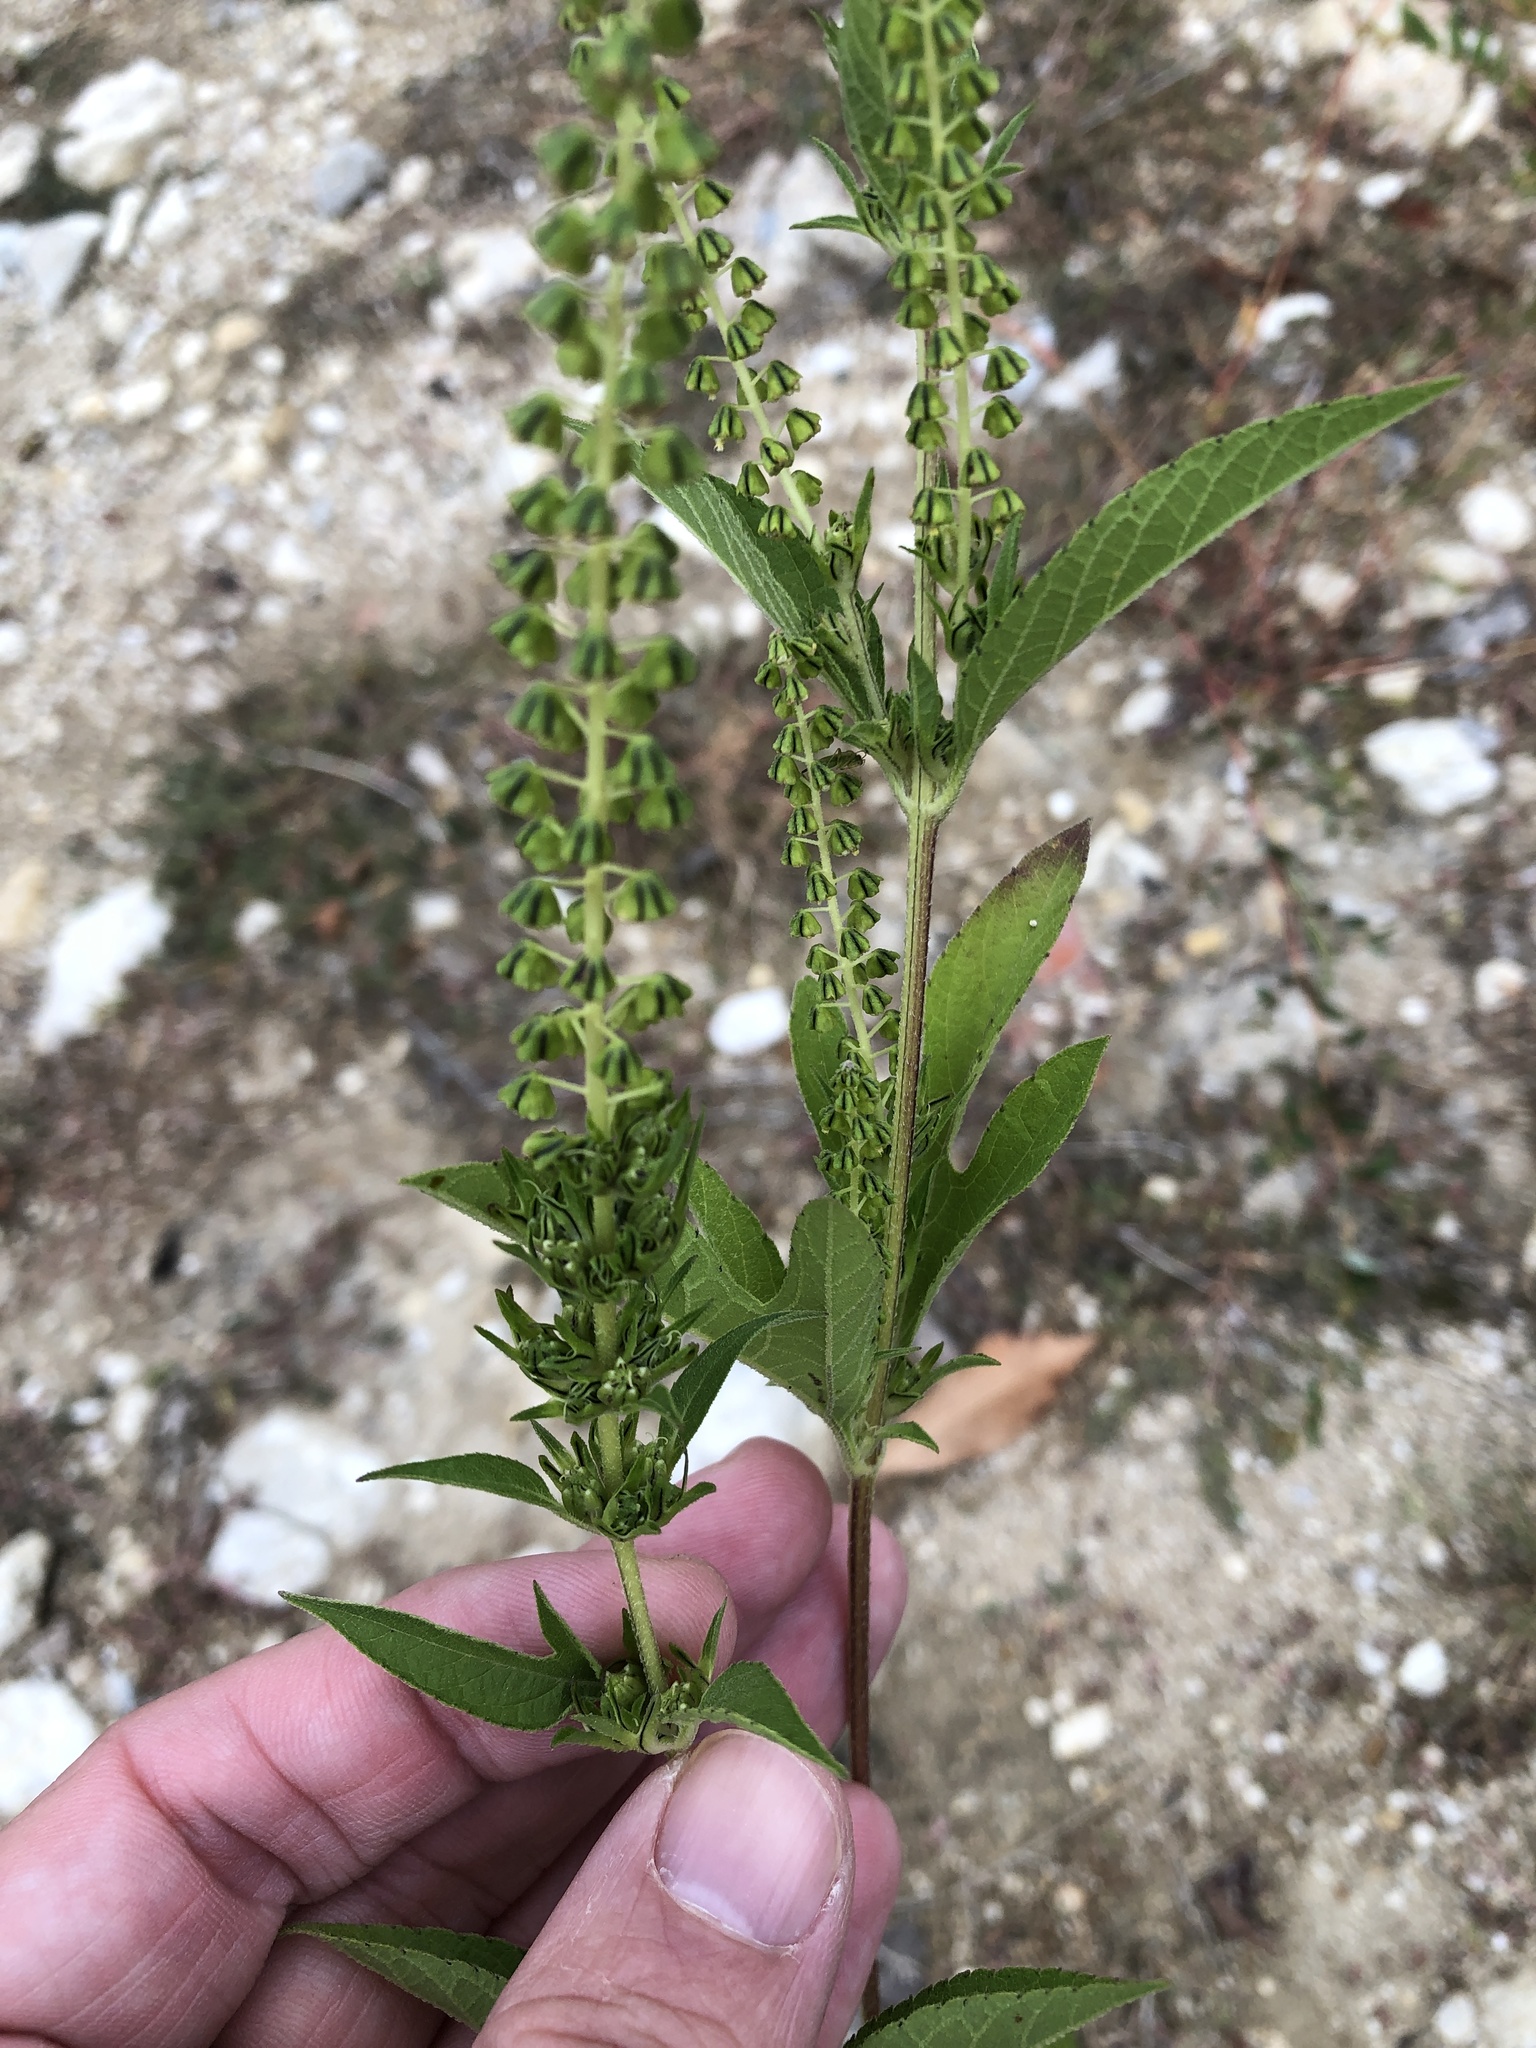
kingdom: Plantae
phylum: Tracheophyta
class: Magnoliopsida
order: Asterales
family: Asteraceae
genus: Ambrosia
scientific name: Ambrosia trifida
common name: Giant ragweed
